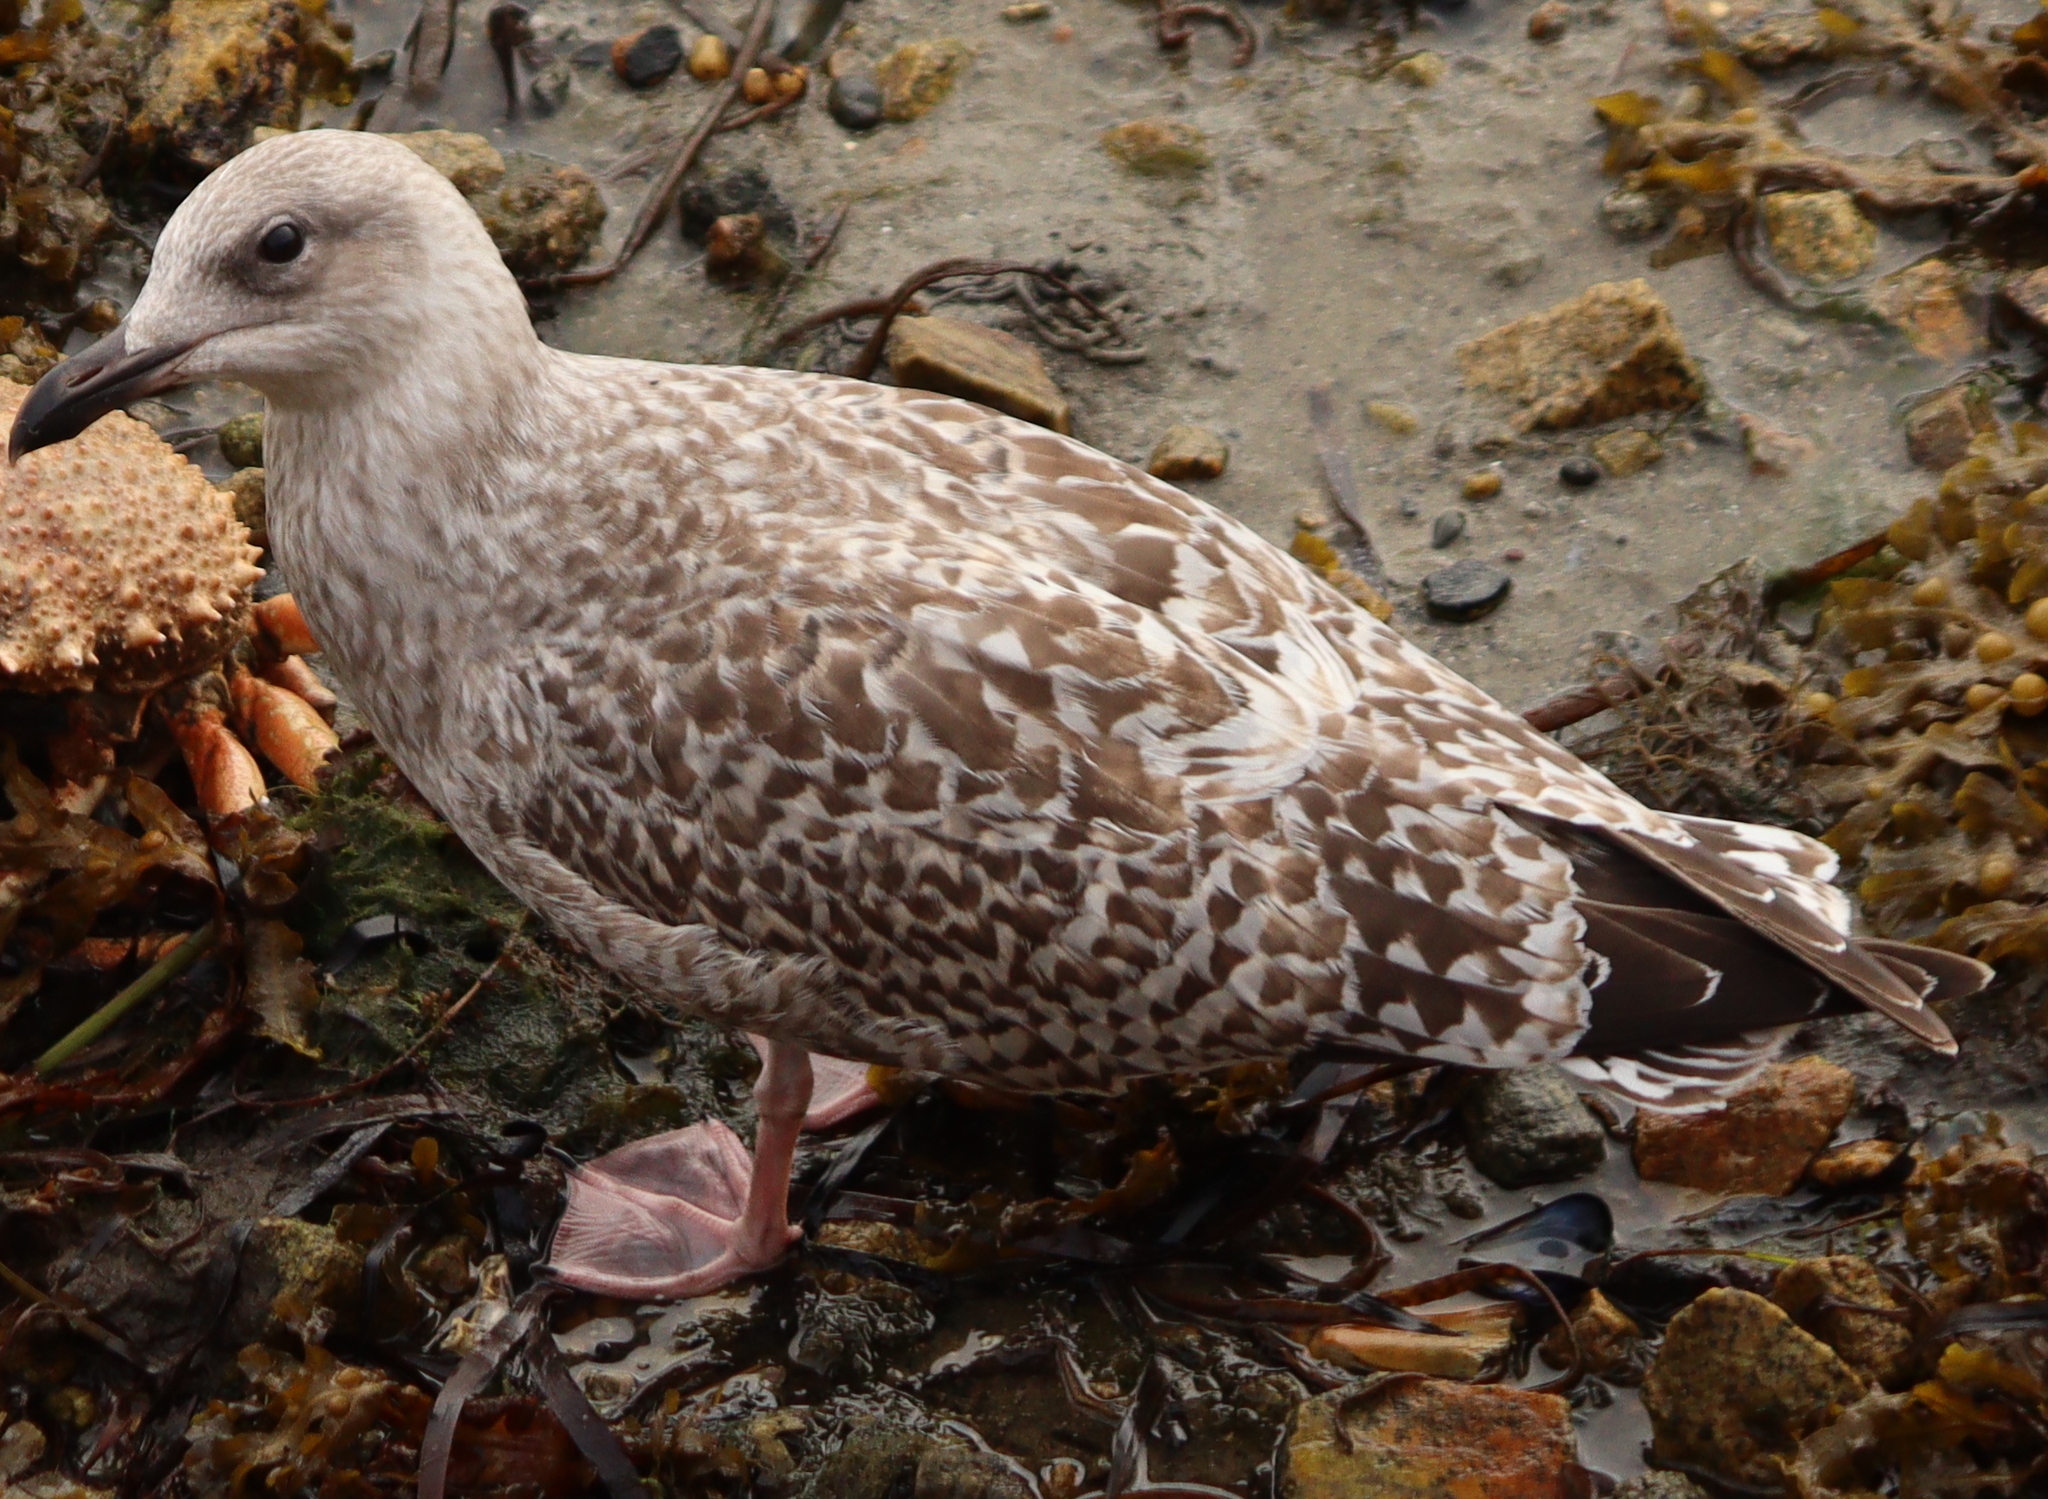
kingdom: Animalia
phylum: Chordata
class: Aves
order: Charadriiformes
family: Laridae
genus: Larus
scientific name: Larus argentatus
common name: Herring gull
